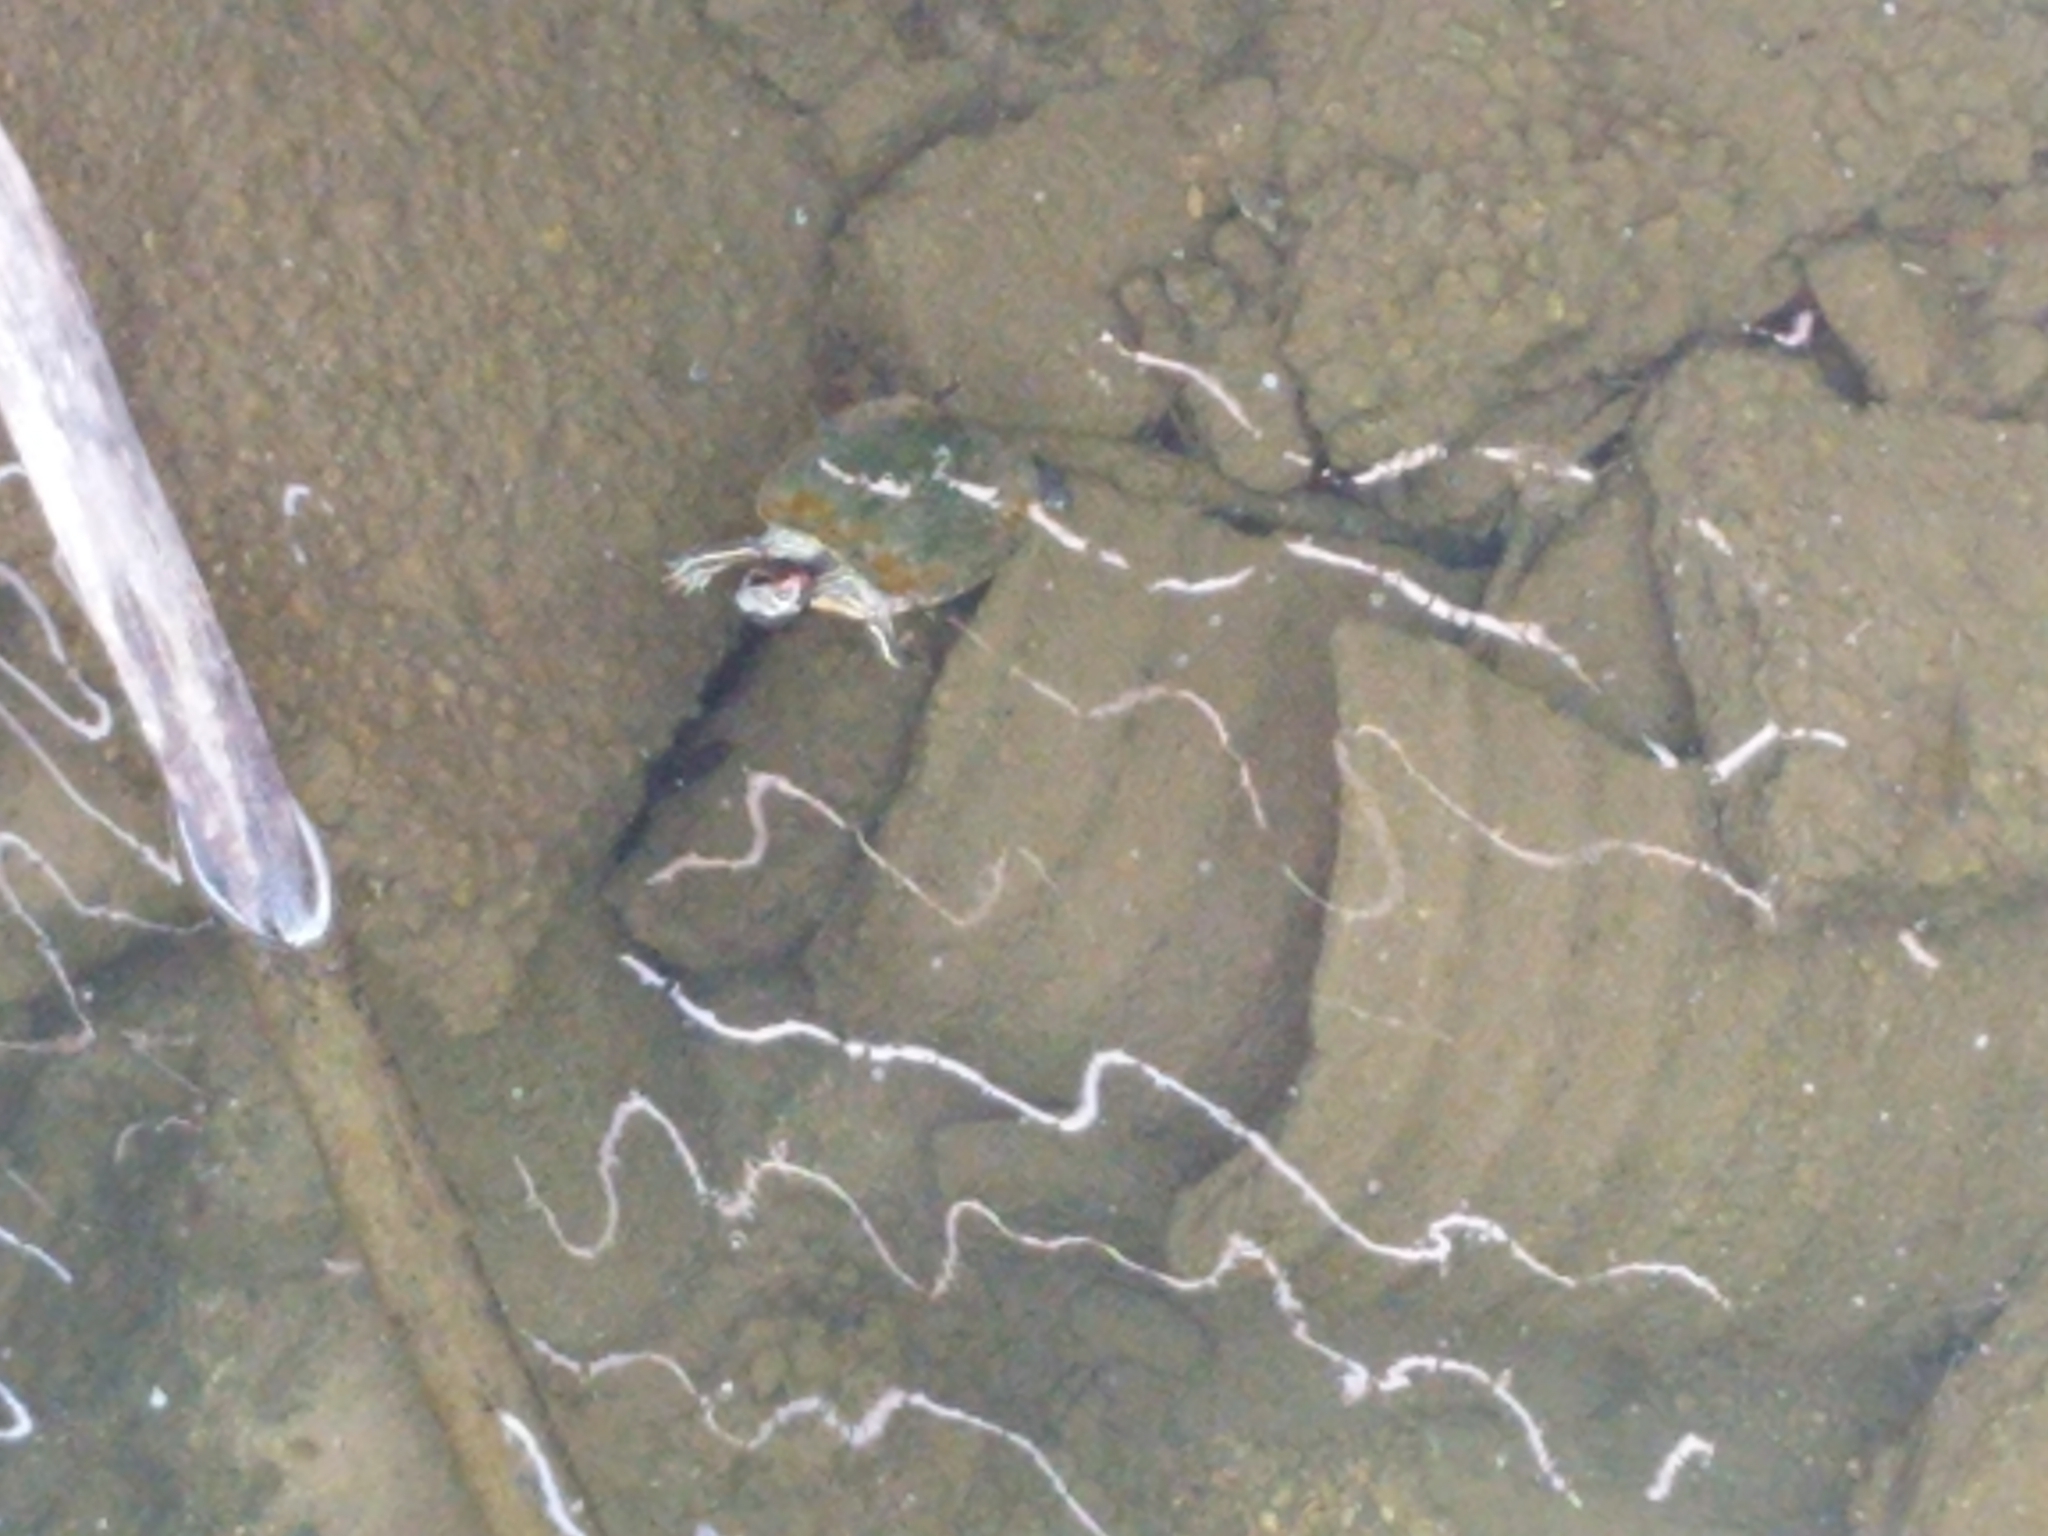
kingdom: Animalia
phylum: Chordata
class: Testudines
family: Emydidae
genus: Trachemys
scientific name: Trachemys scripta
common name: Slider
